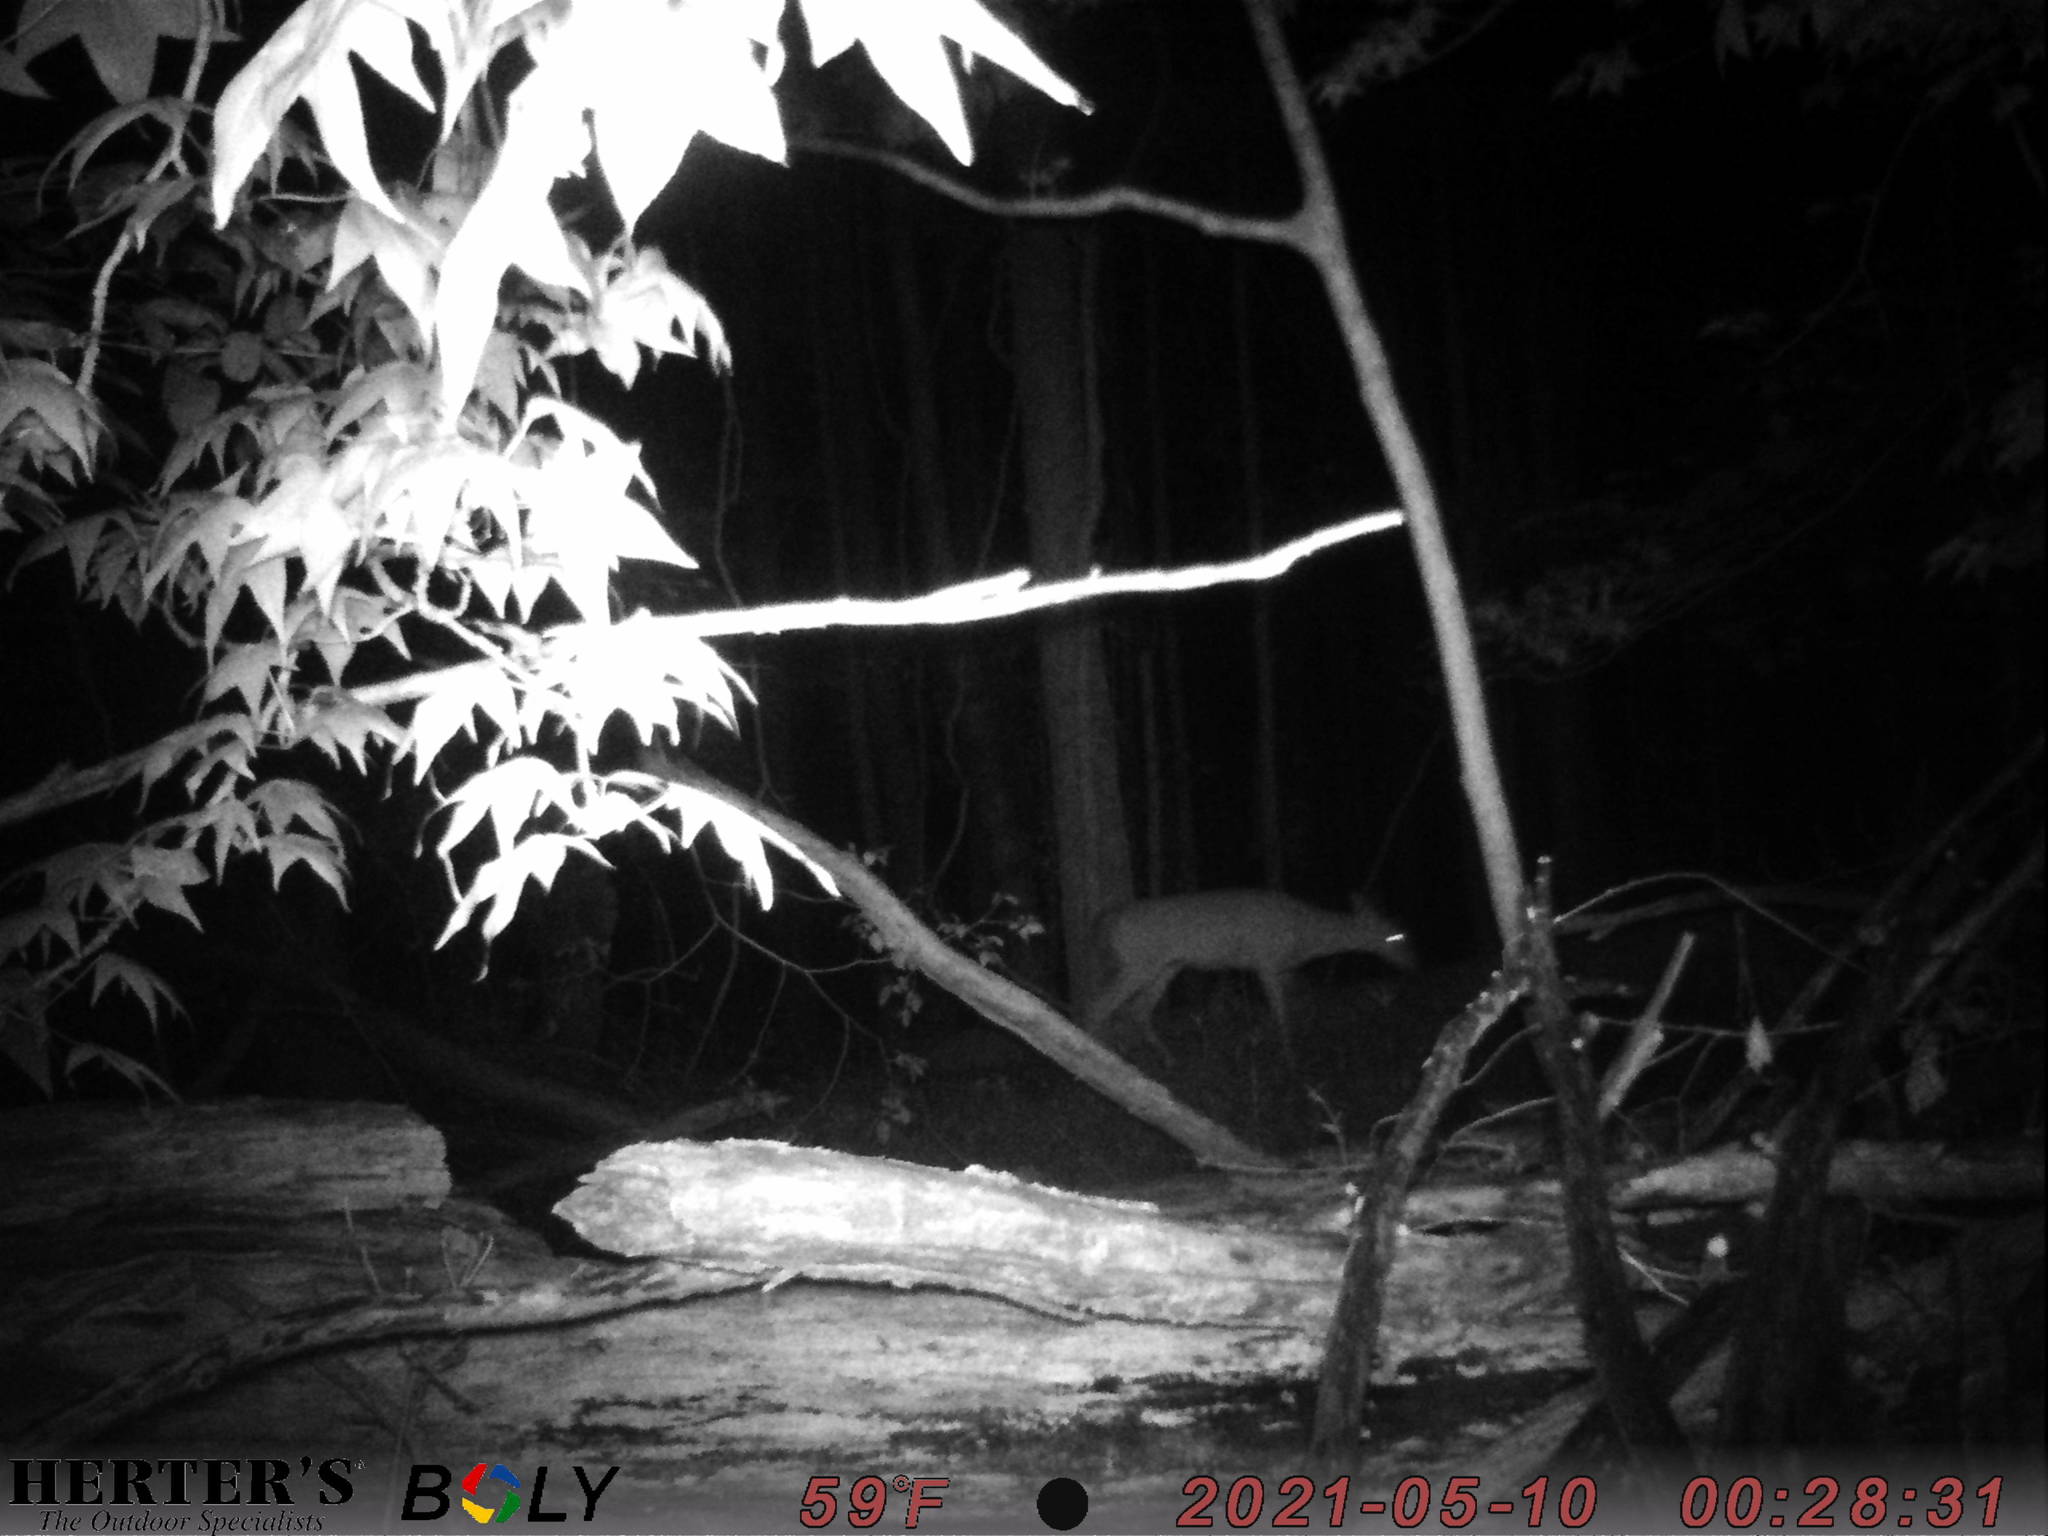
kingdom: Animalia
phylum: Chordata
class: Mammalia
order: Artiodactyla
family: Cervidae
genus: Odocoileus
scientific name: Odocoileus virginianus
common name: White-tailed deer
